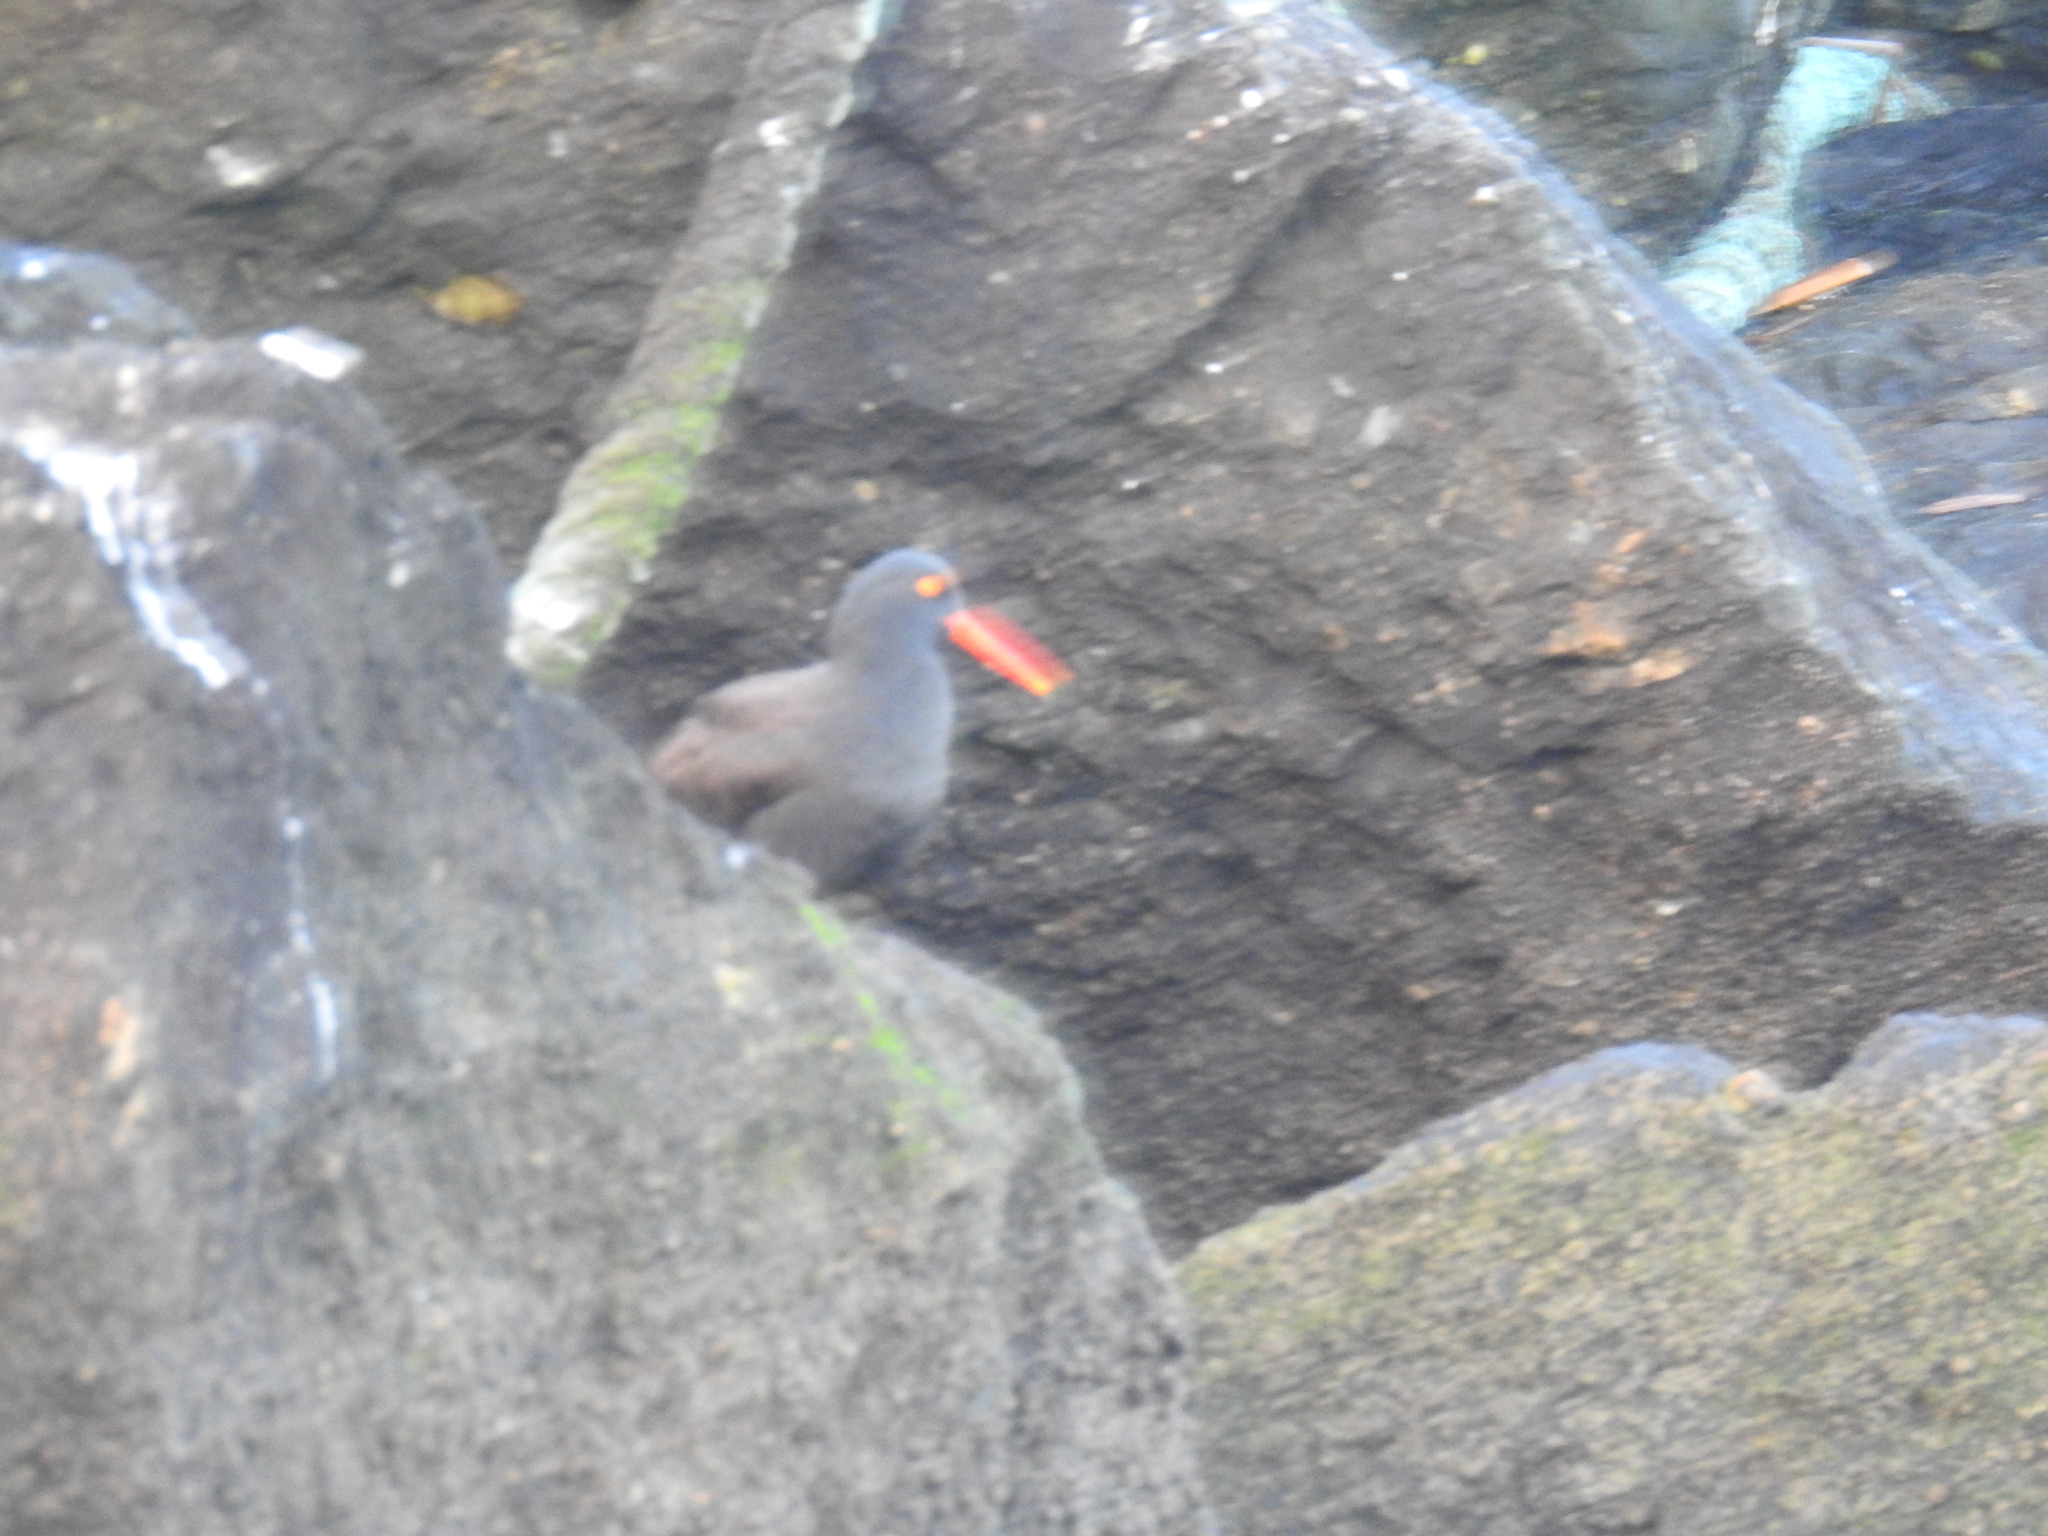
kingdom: Animalia
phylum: Chordata
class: Aves
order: Charadriiformes
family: Haematopodidae
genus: Haematopus
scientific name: Haematopus bachmani
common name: Black oystercatcher
